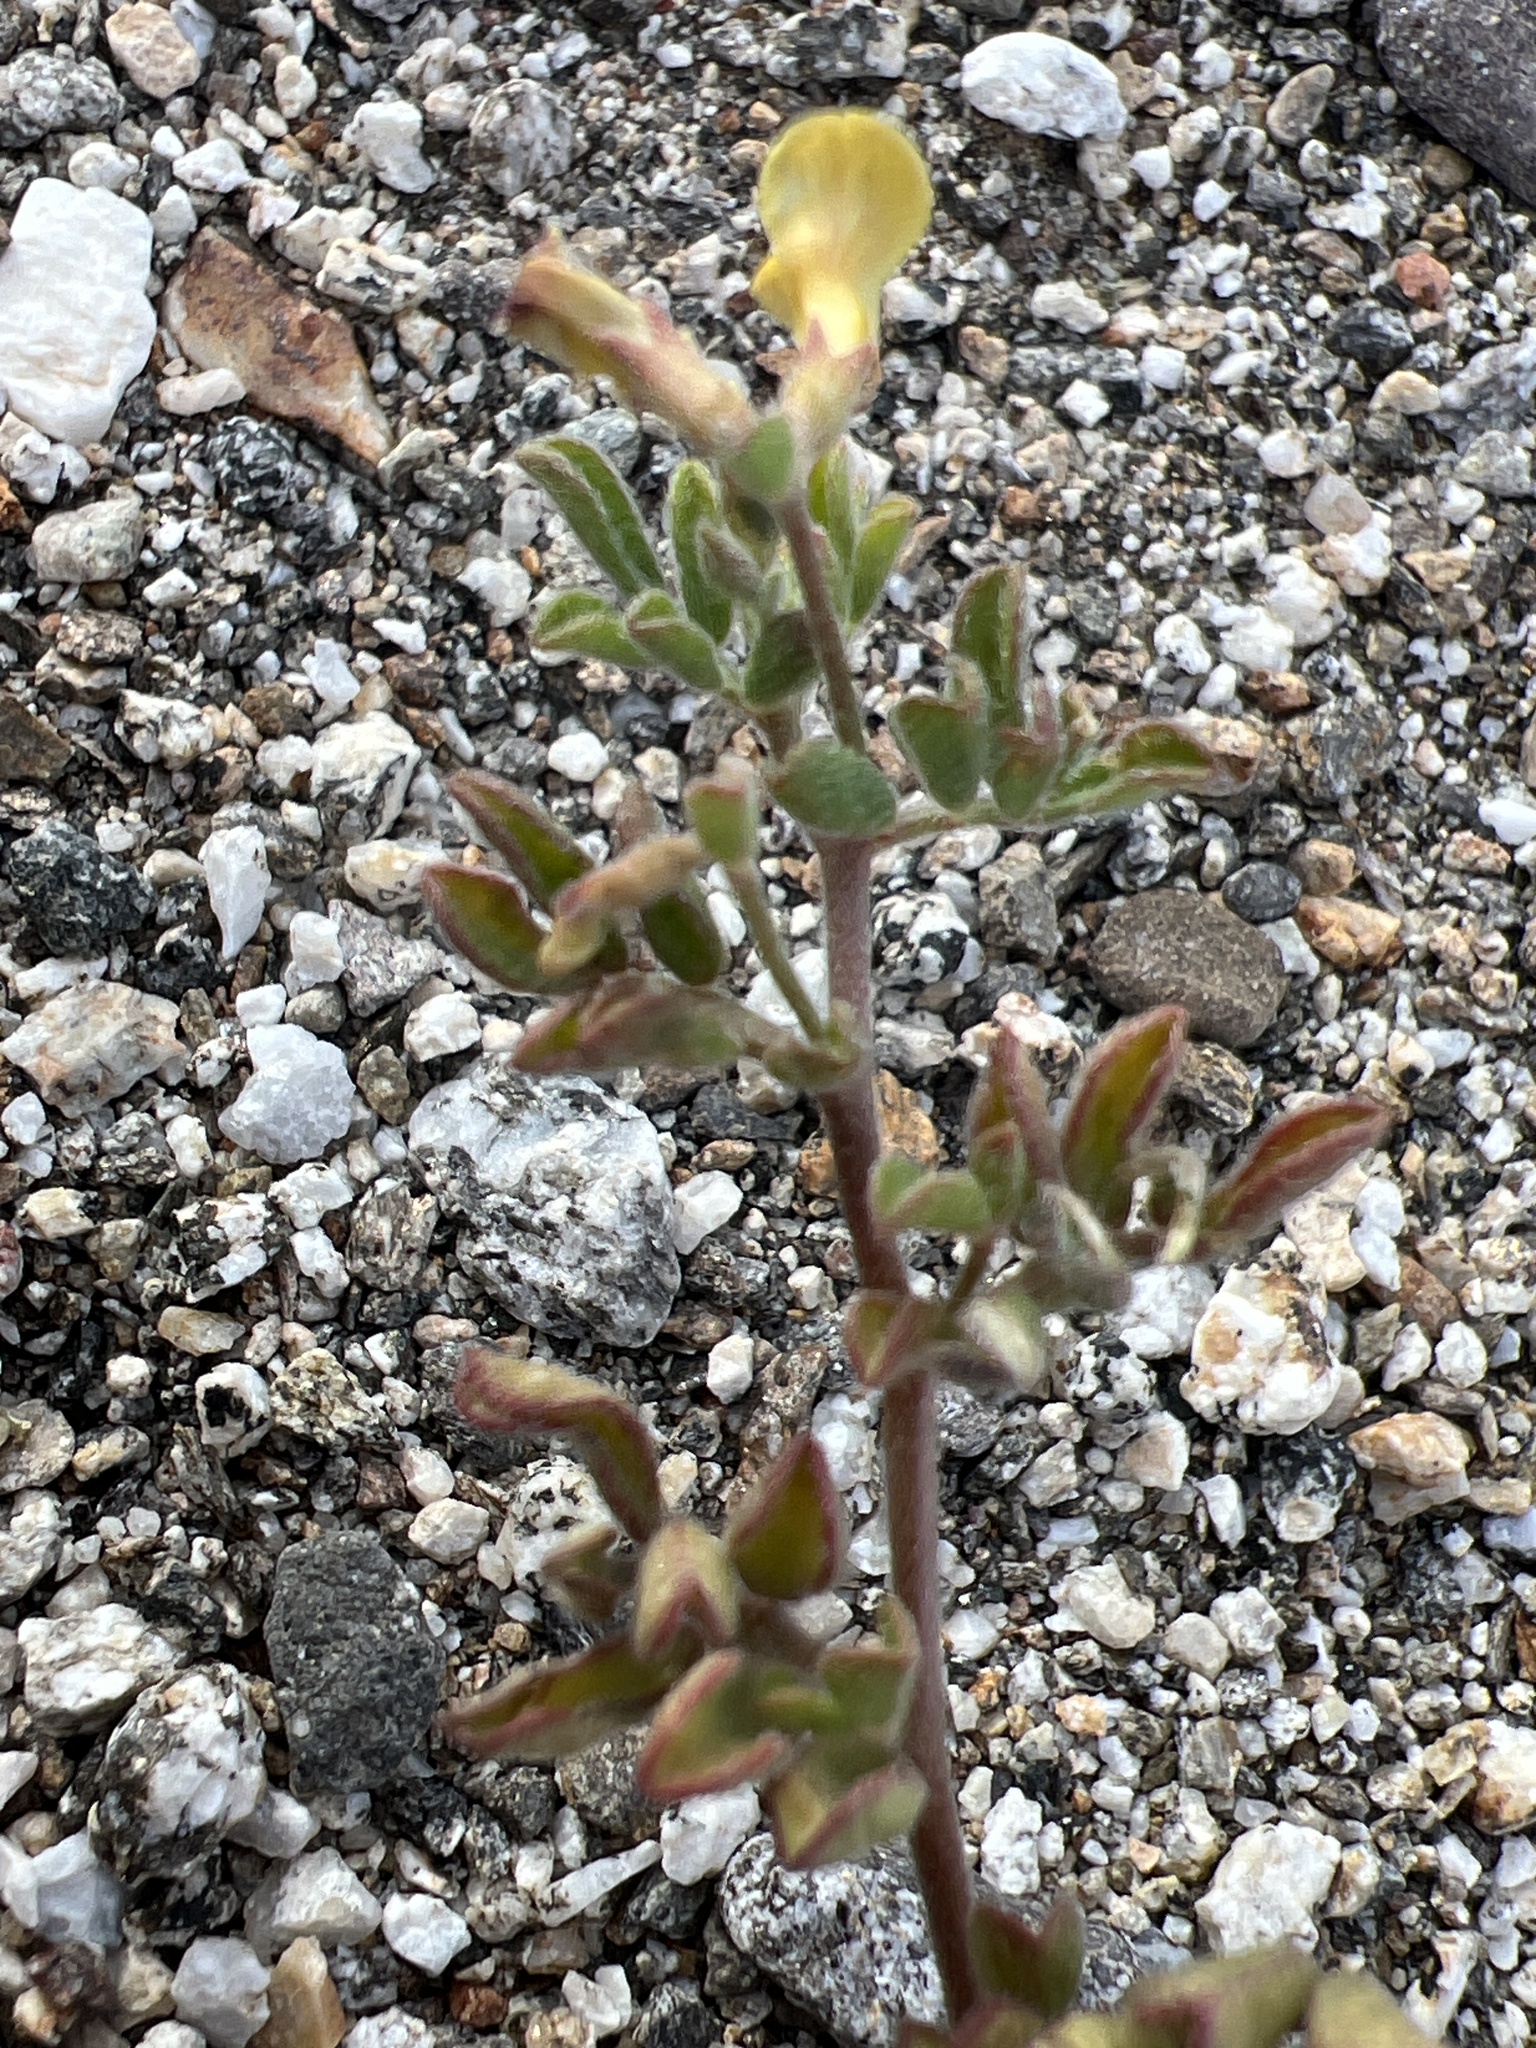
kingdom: Plantae
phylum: Tracheophyta
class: Magnoliopsida
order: Fabales
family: Fabaceae
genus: Acmispon
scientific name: Acmispon strigosus
